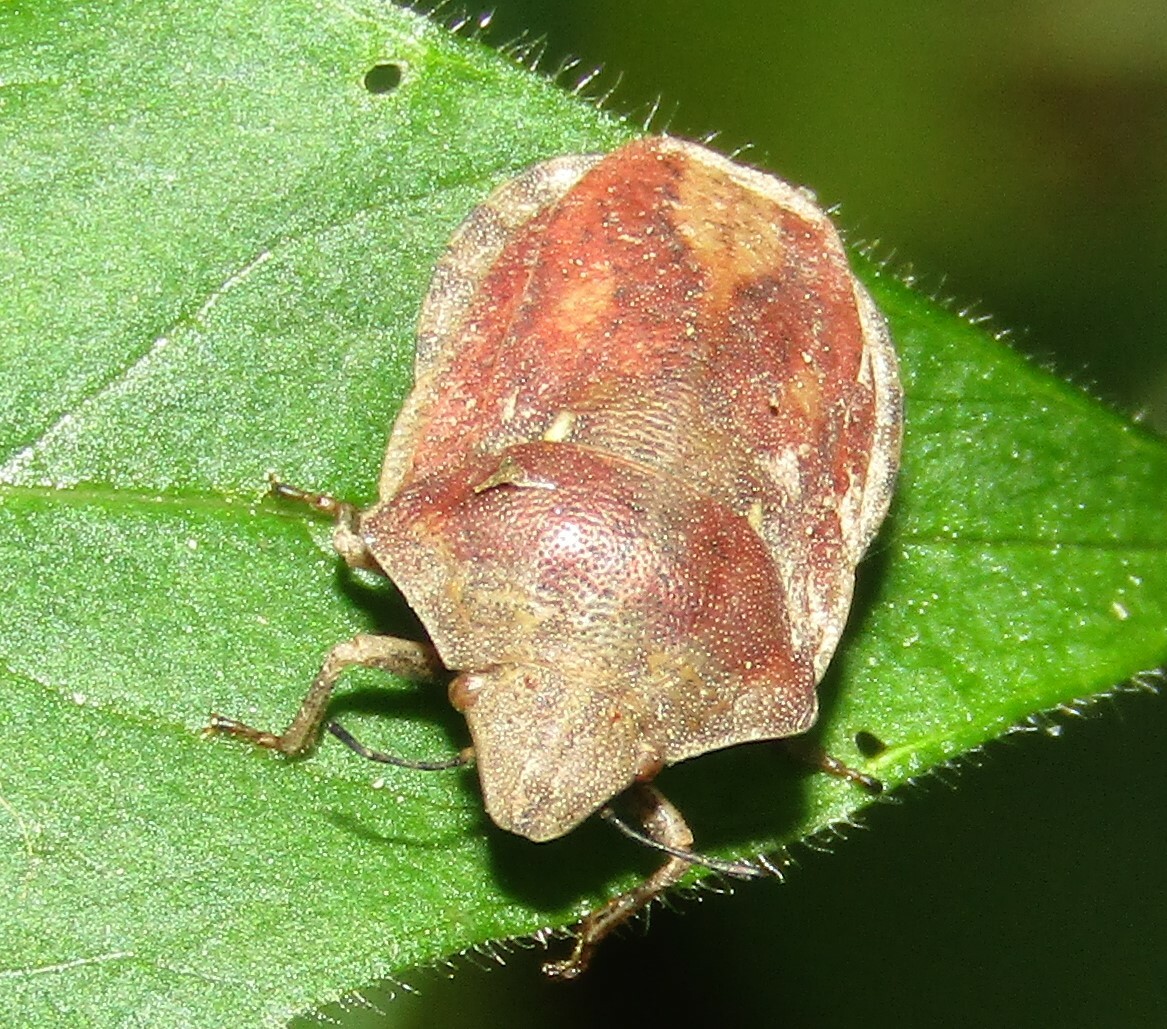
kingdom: Animalia
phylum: Arthropoda
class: Insecta
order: Hemiptera
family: Scutelleridae
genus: Eurygaster
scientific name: Eurygaster testudinaria
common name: Tortoise bug
